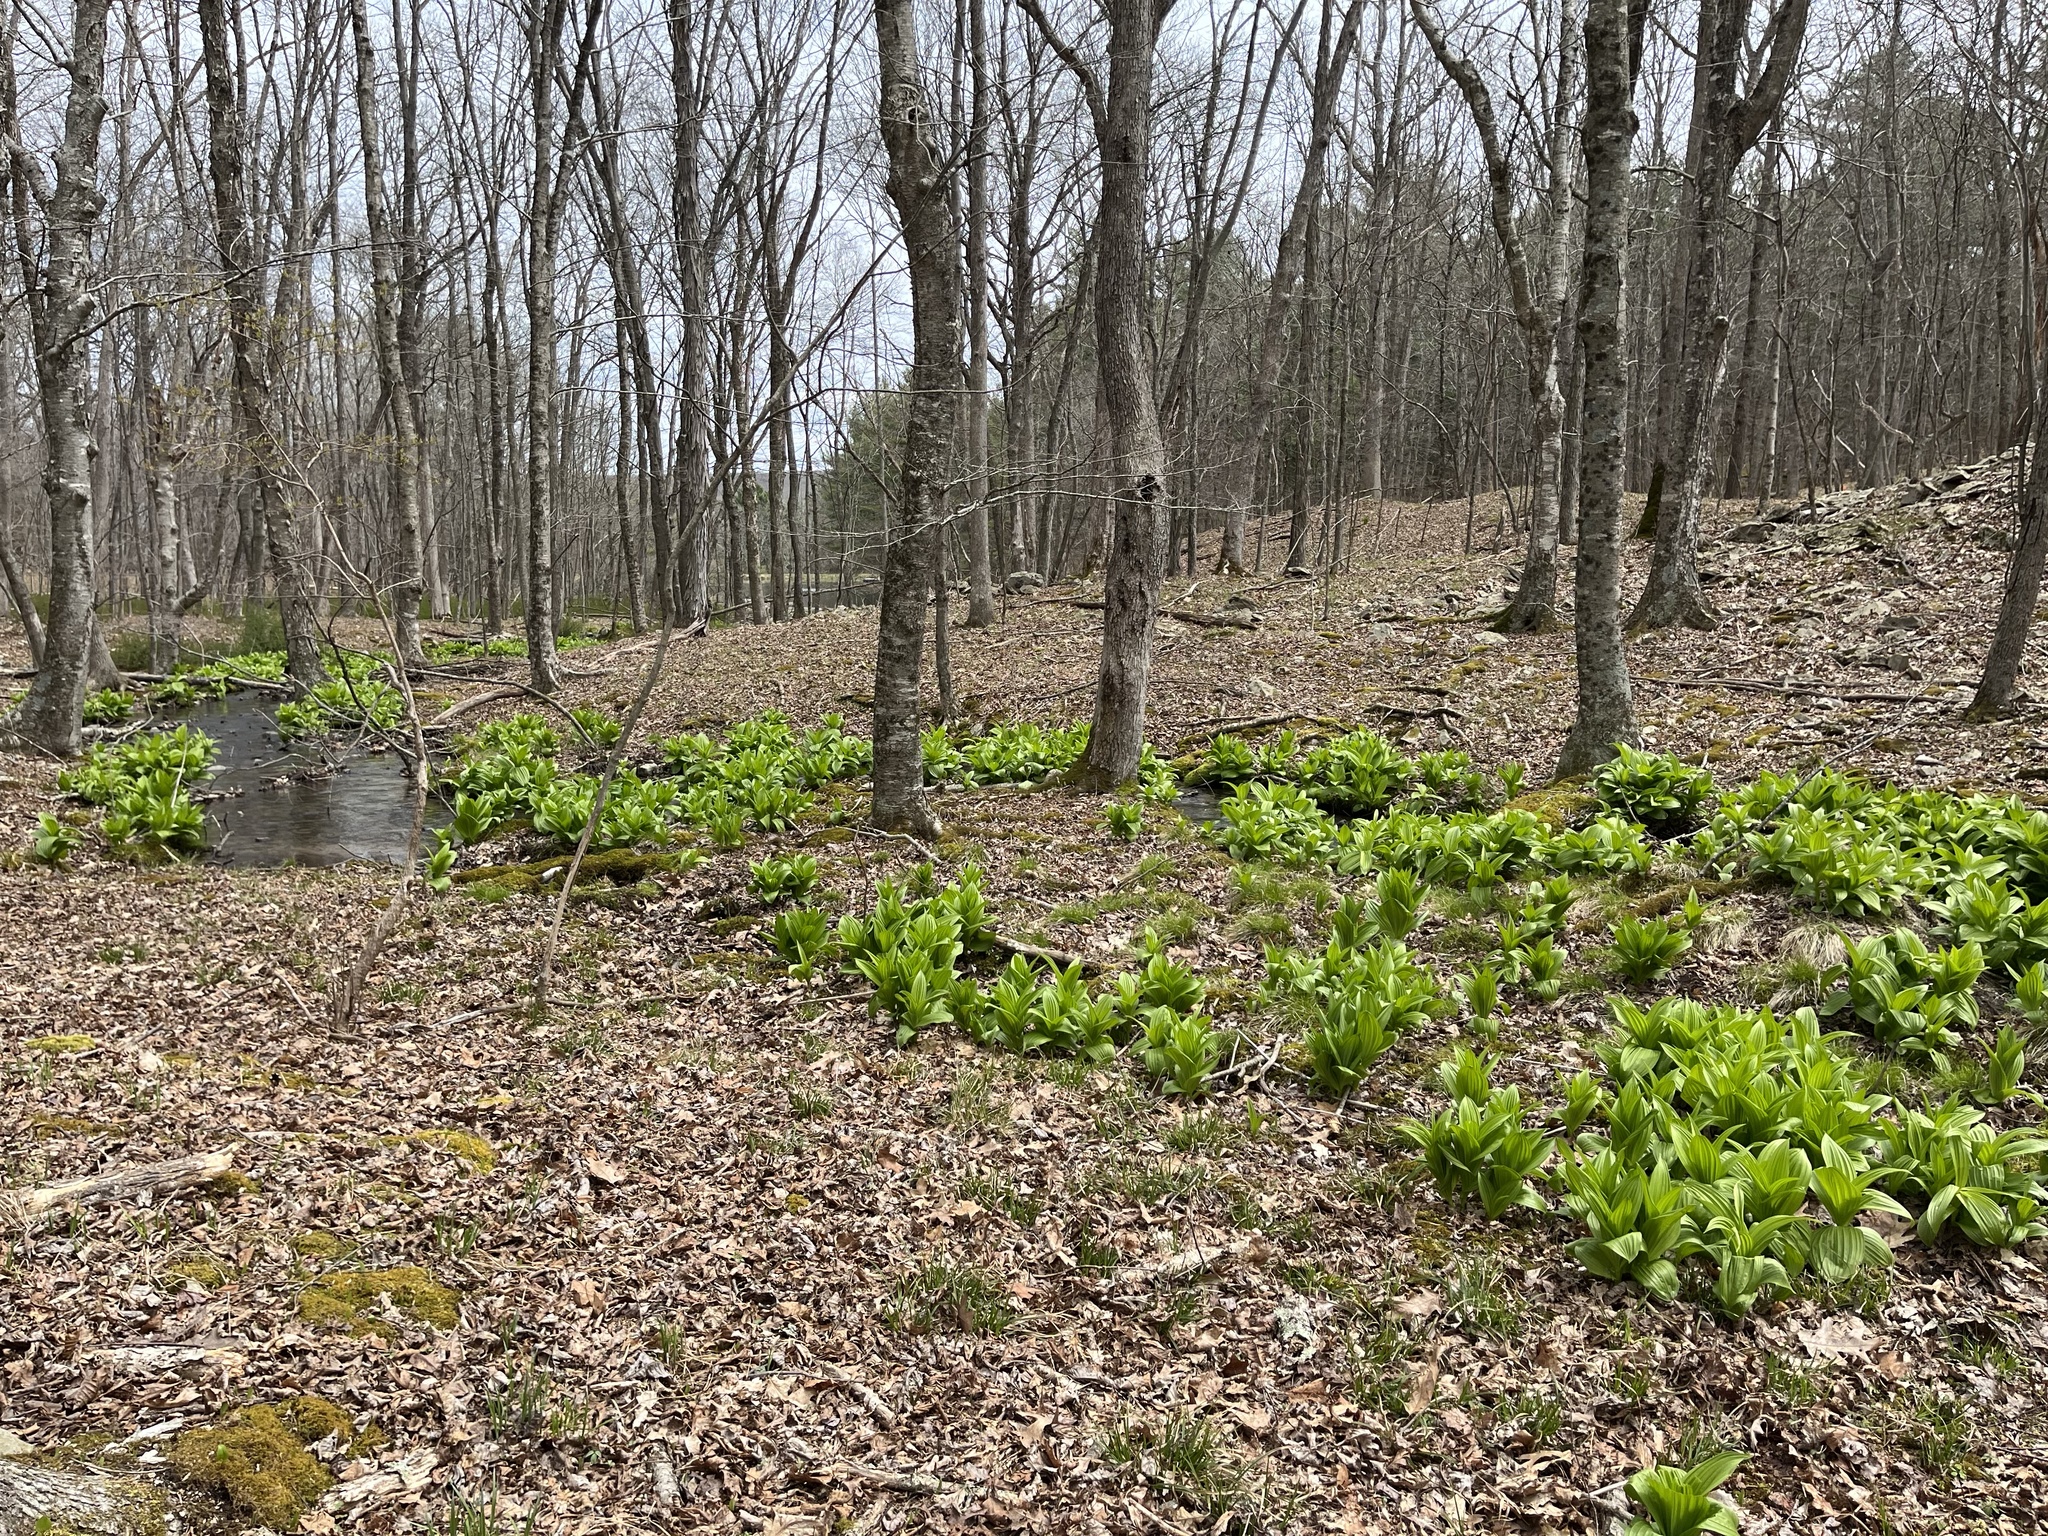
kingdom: Plantae
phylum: Tracheophyta
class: Liliopsida
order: Liliales
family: Melanthiaceae
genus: Veratrum
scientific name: Veratrum viride
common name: American false hellebore
